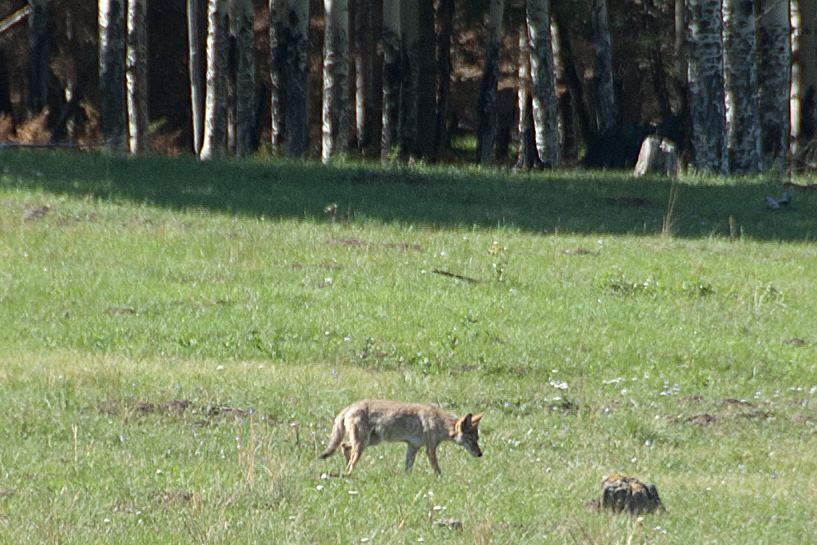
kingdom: Animalia
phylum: Chordata
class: Mammalia
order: Carnivora
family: Canidae
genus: Canis
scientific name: Canis latrans
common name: Coyote
